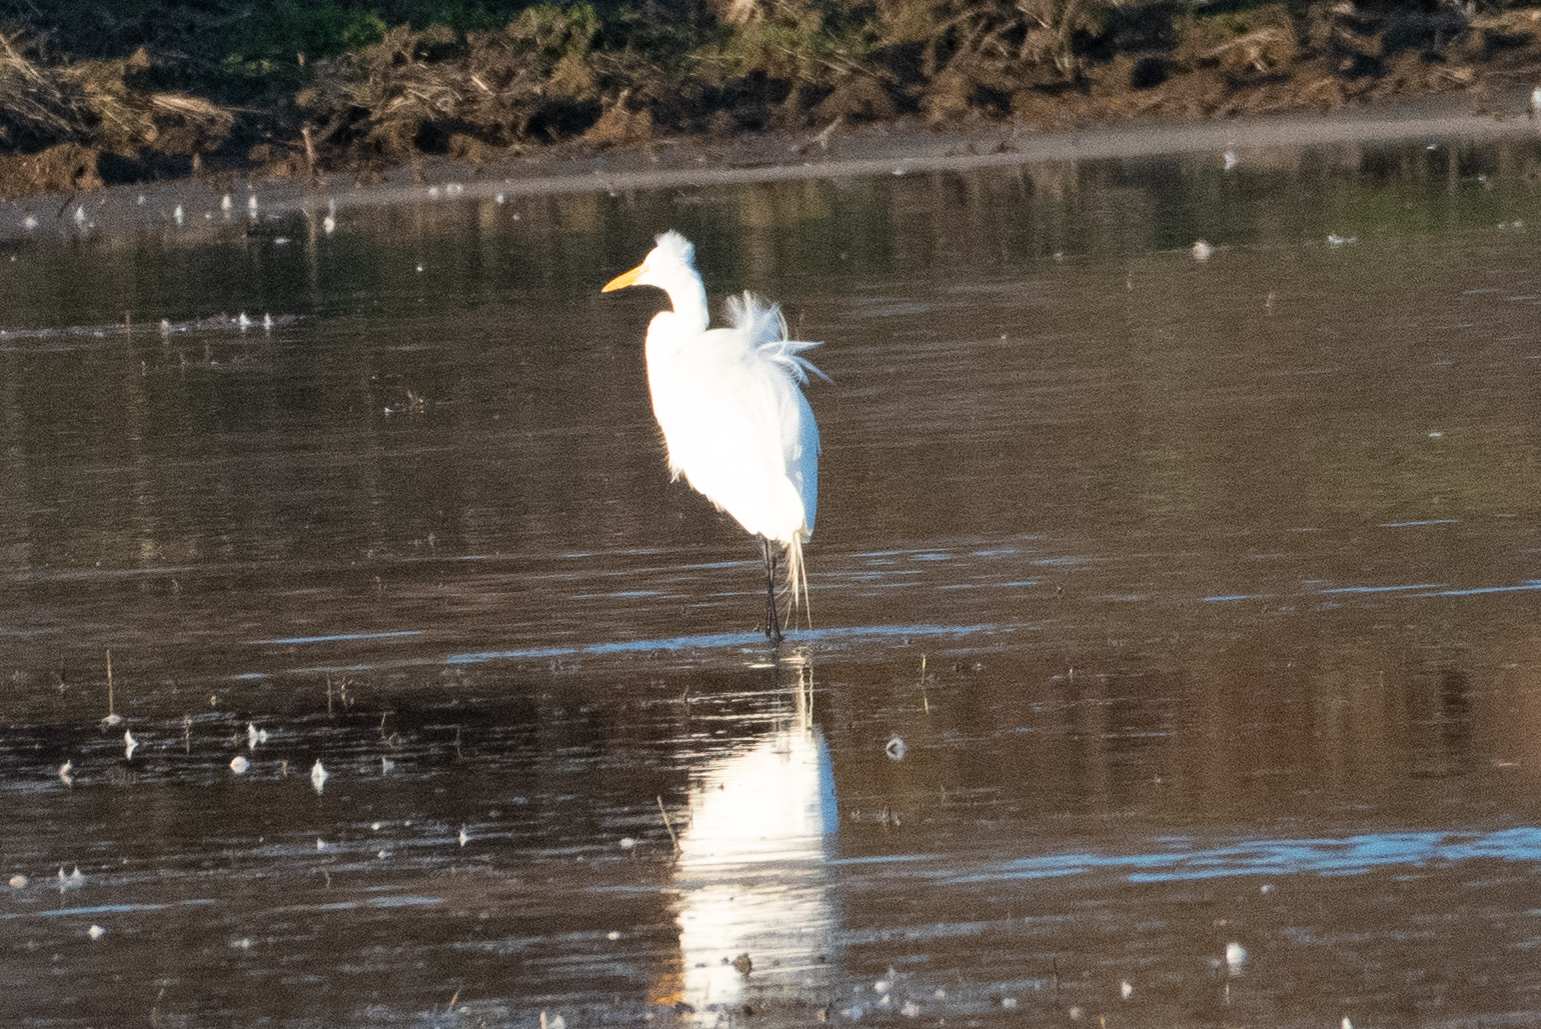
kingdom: Animalia
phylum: Chordata
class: Aves
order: Pelecaniformes
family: Ardeidae
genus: Ardea
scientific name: Ardea alba
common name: Great egret
